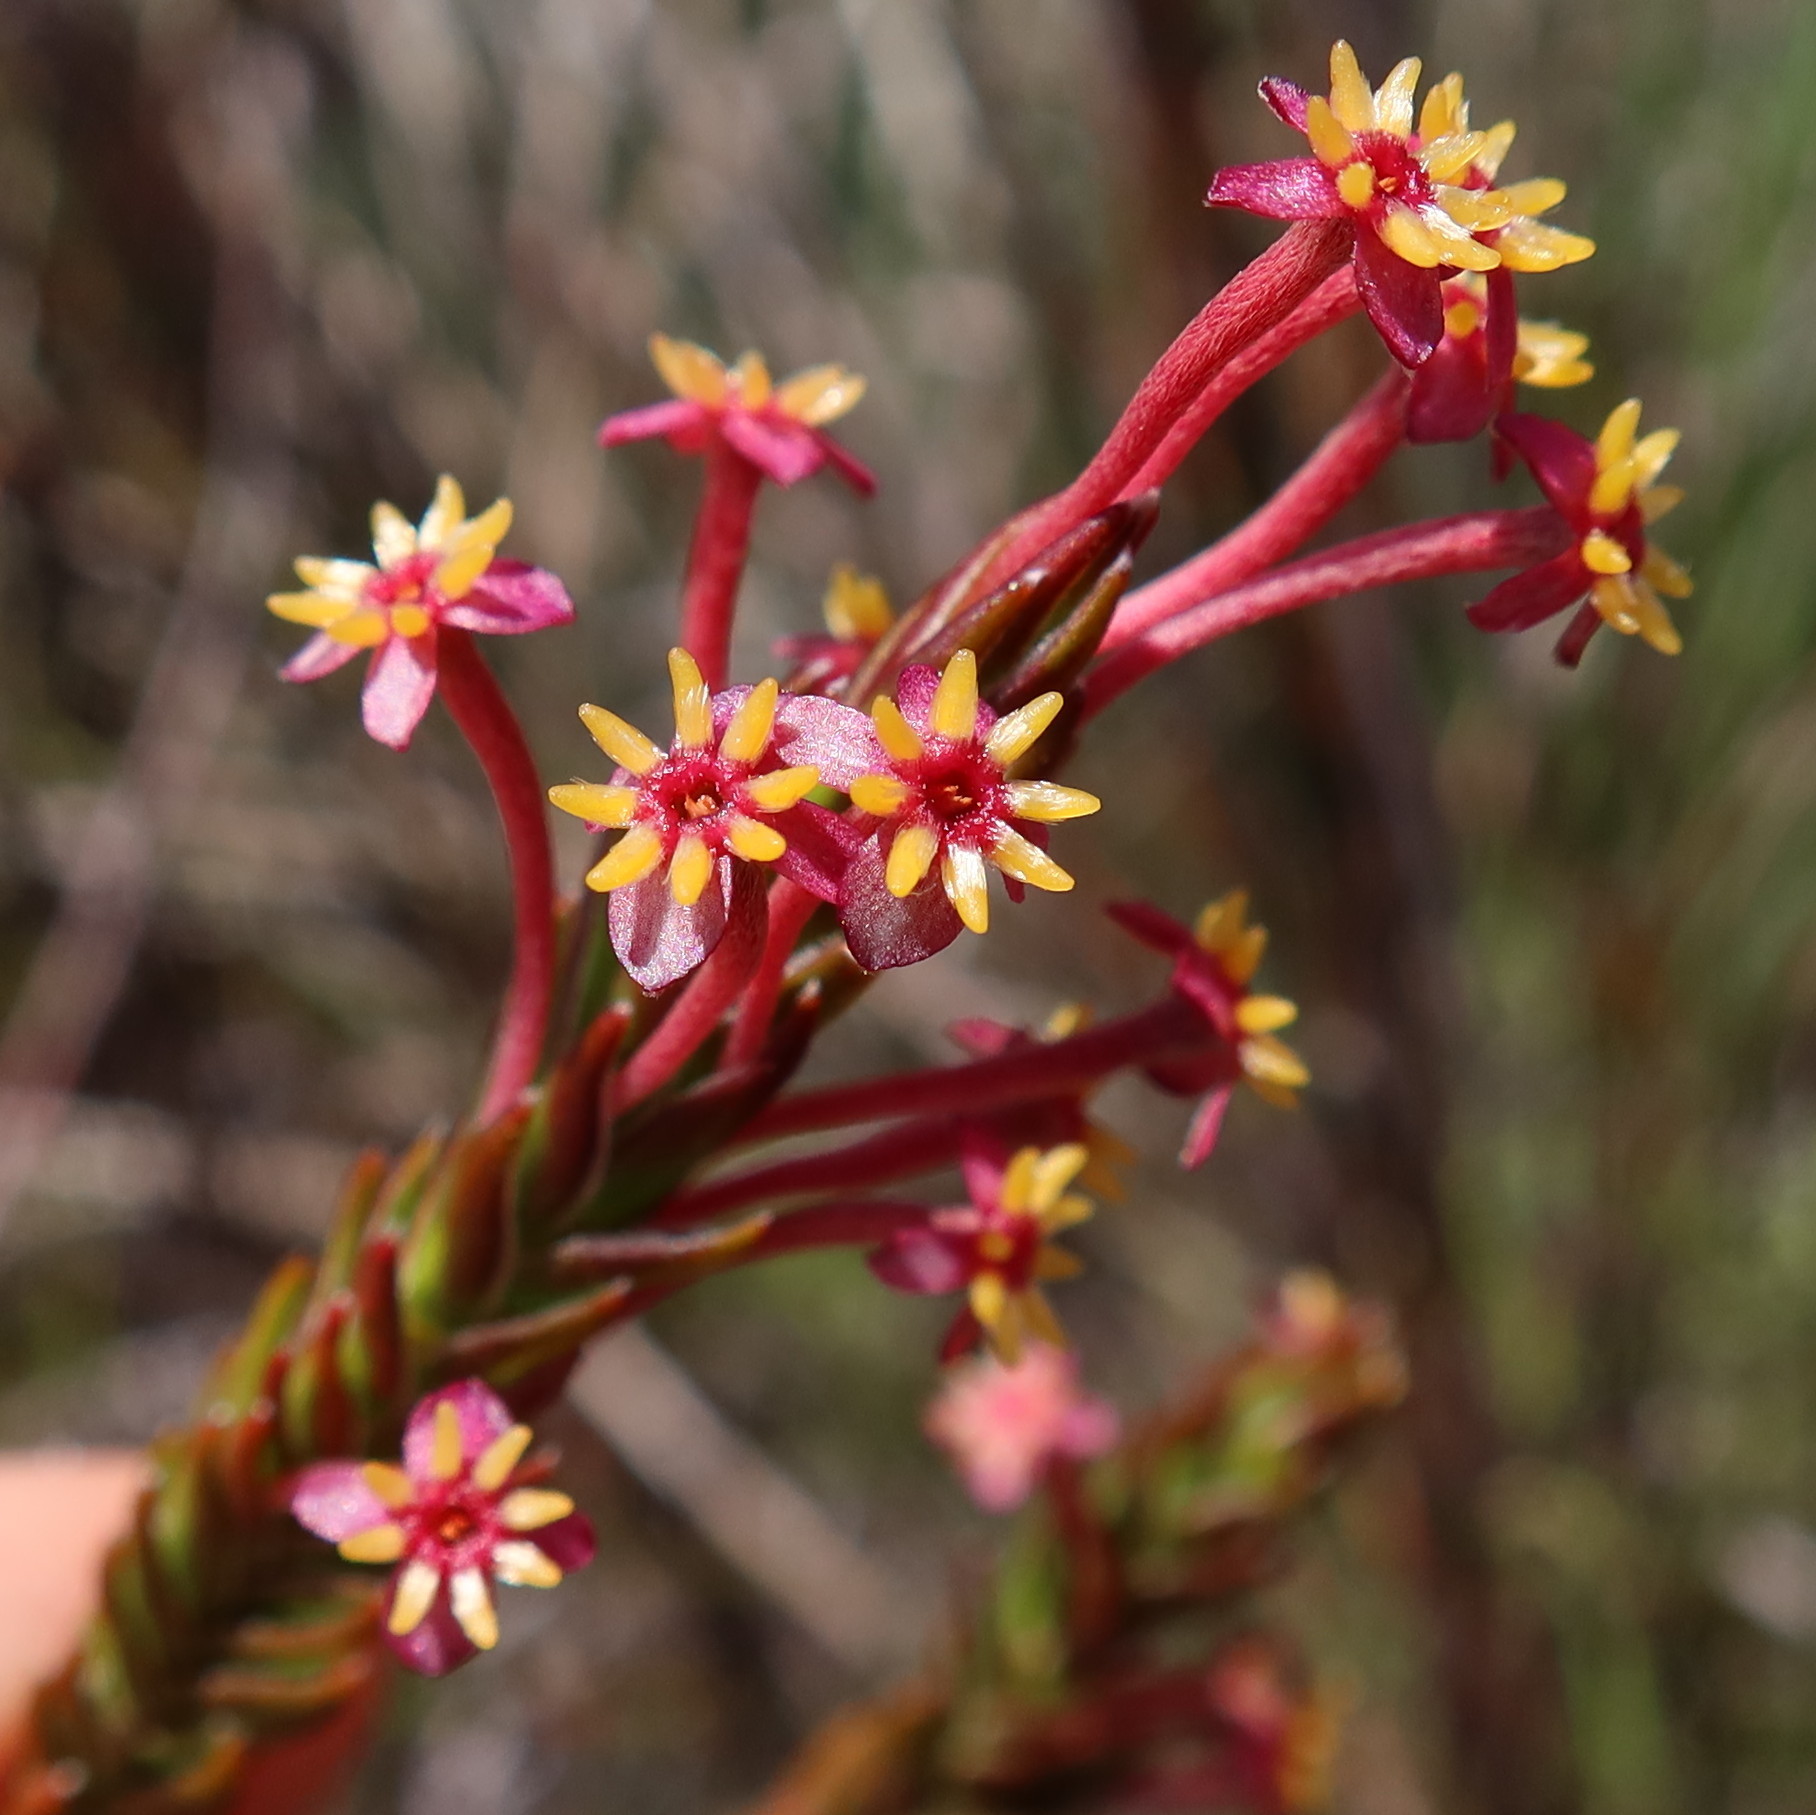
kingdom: Plantae
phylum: Tracheophyta
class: Magnoliopsida
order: Malvales
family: Thymelaeaceae
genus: Struthiola
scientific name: Struthiola ciliata
